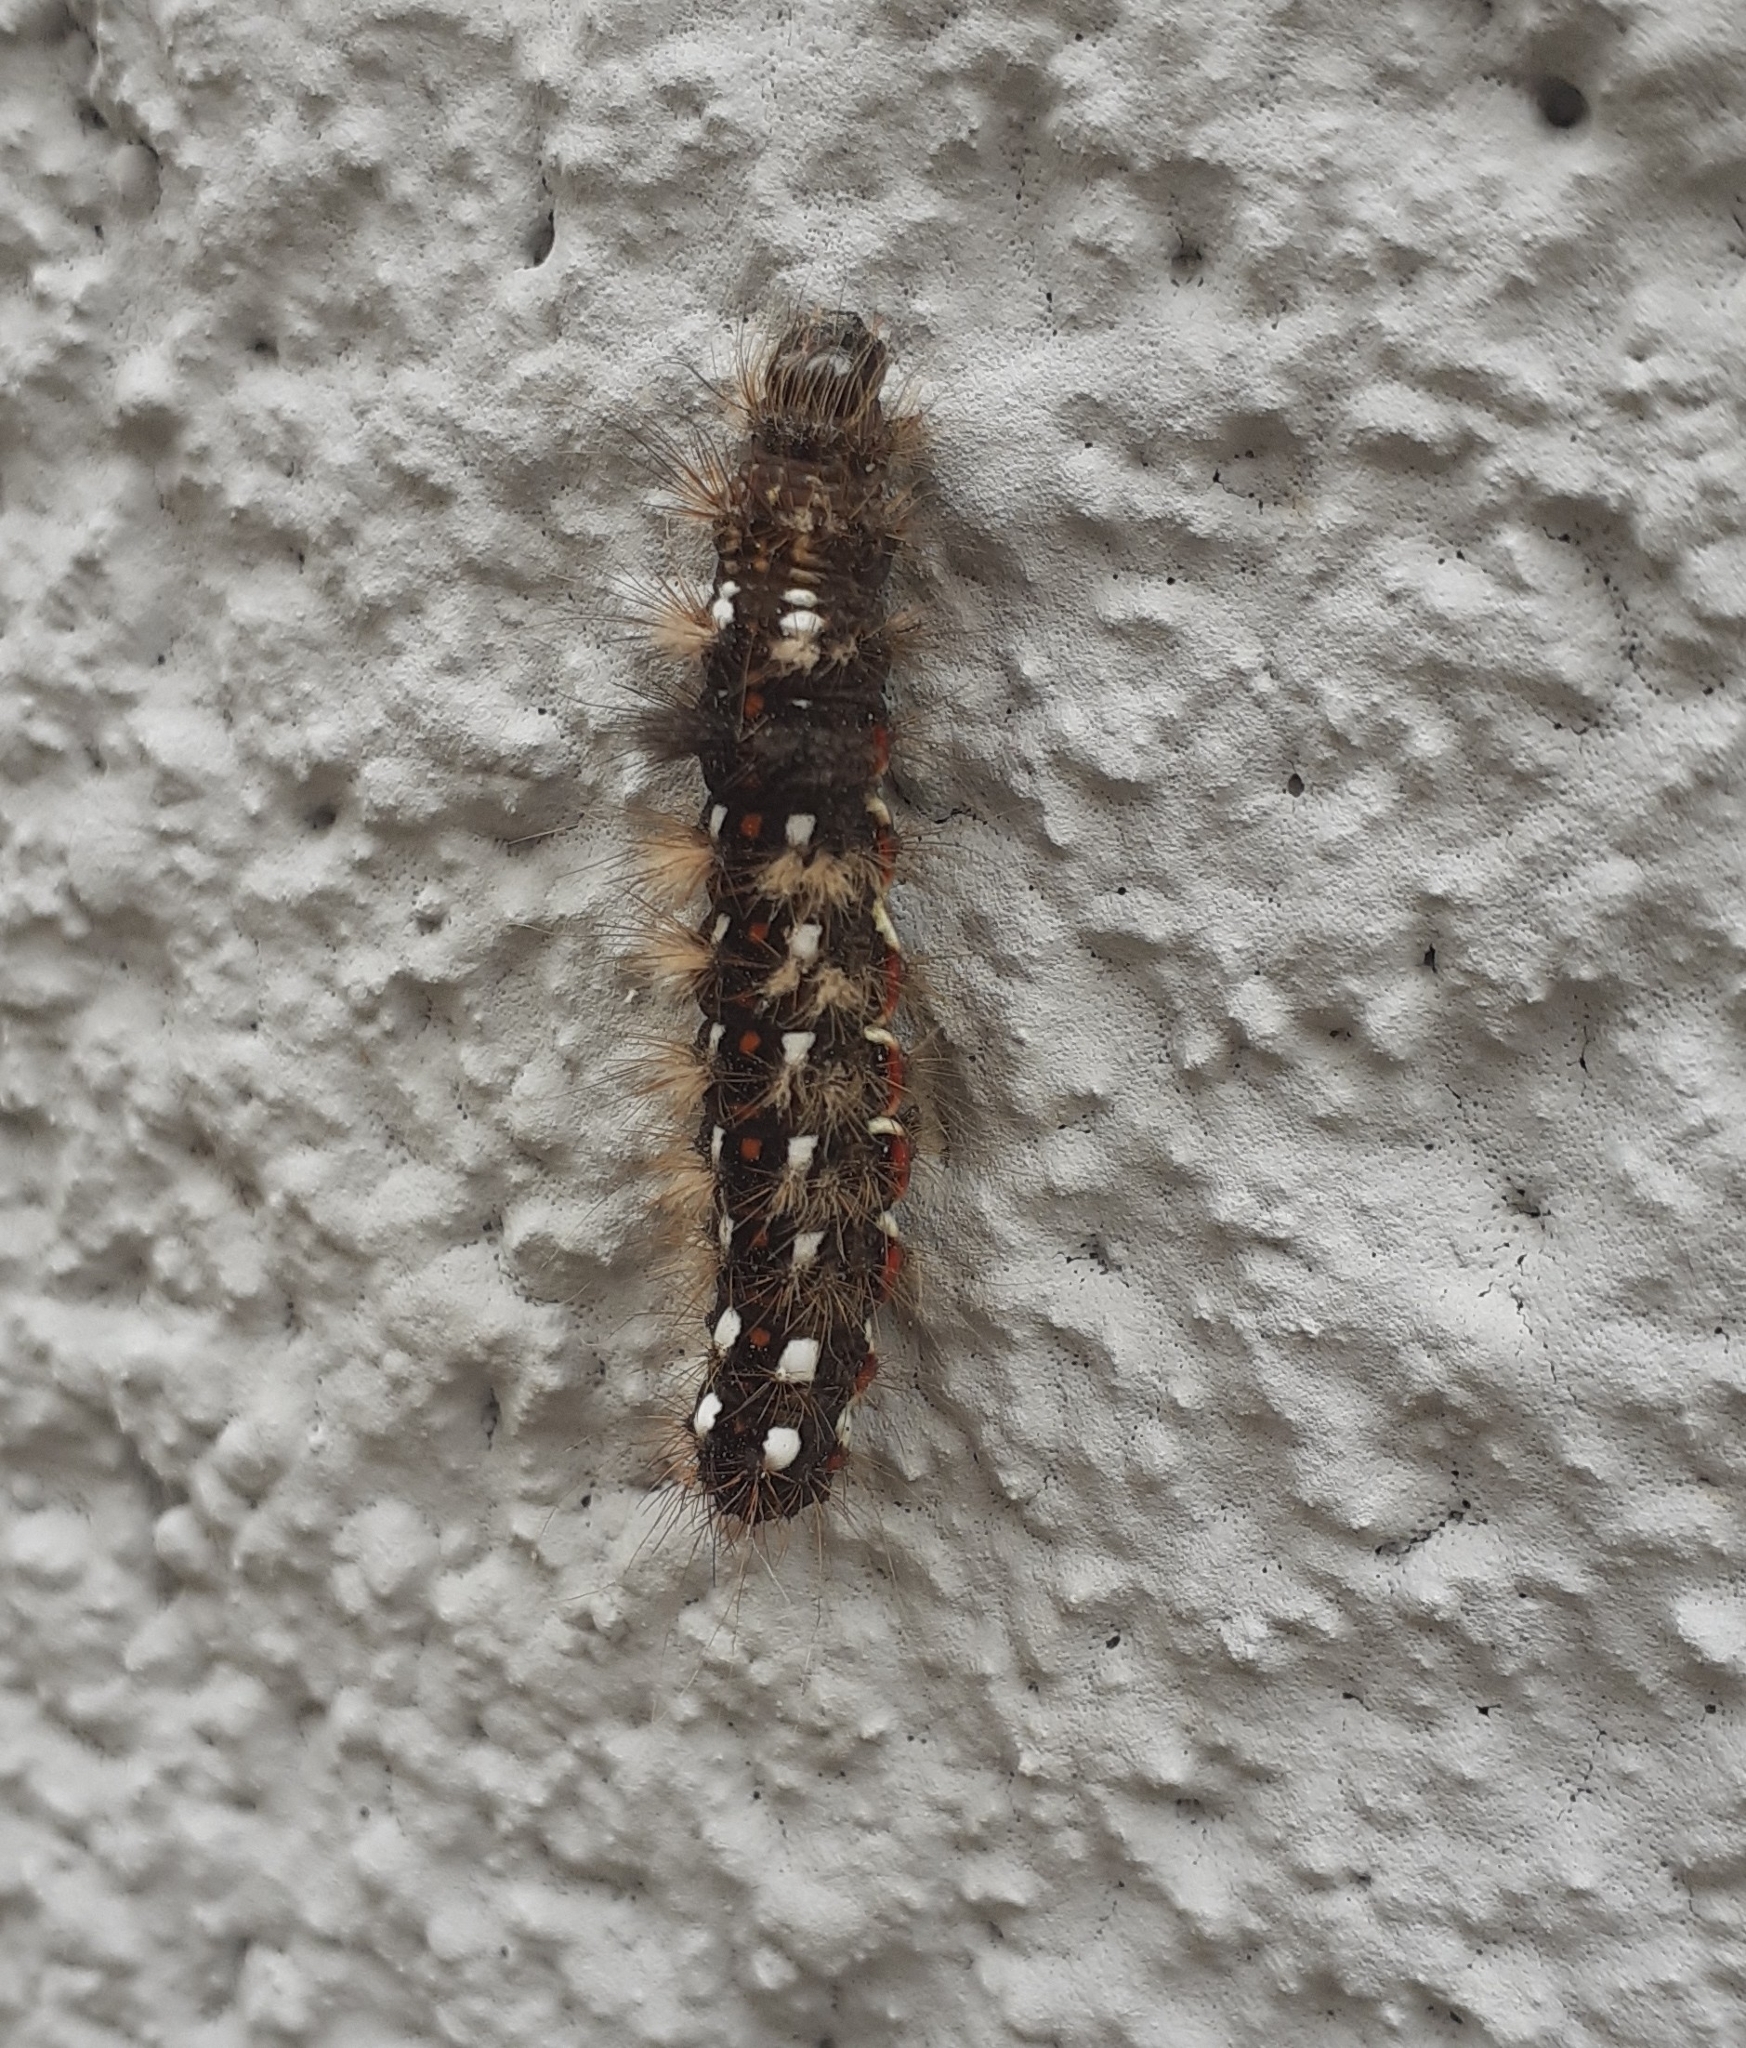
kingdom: Animalia
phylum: Arthropoda
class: Insecta
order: Lepidoptera
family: Noctuidae
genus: Acronicta
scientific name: Acronicta rumicis
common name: Knot grass
